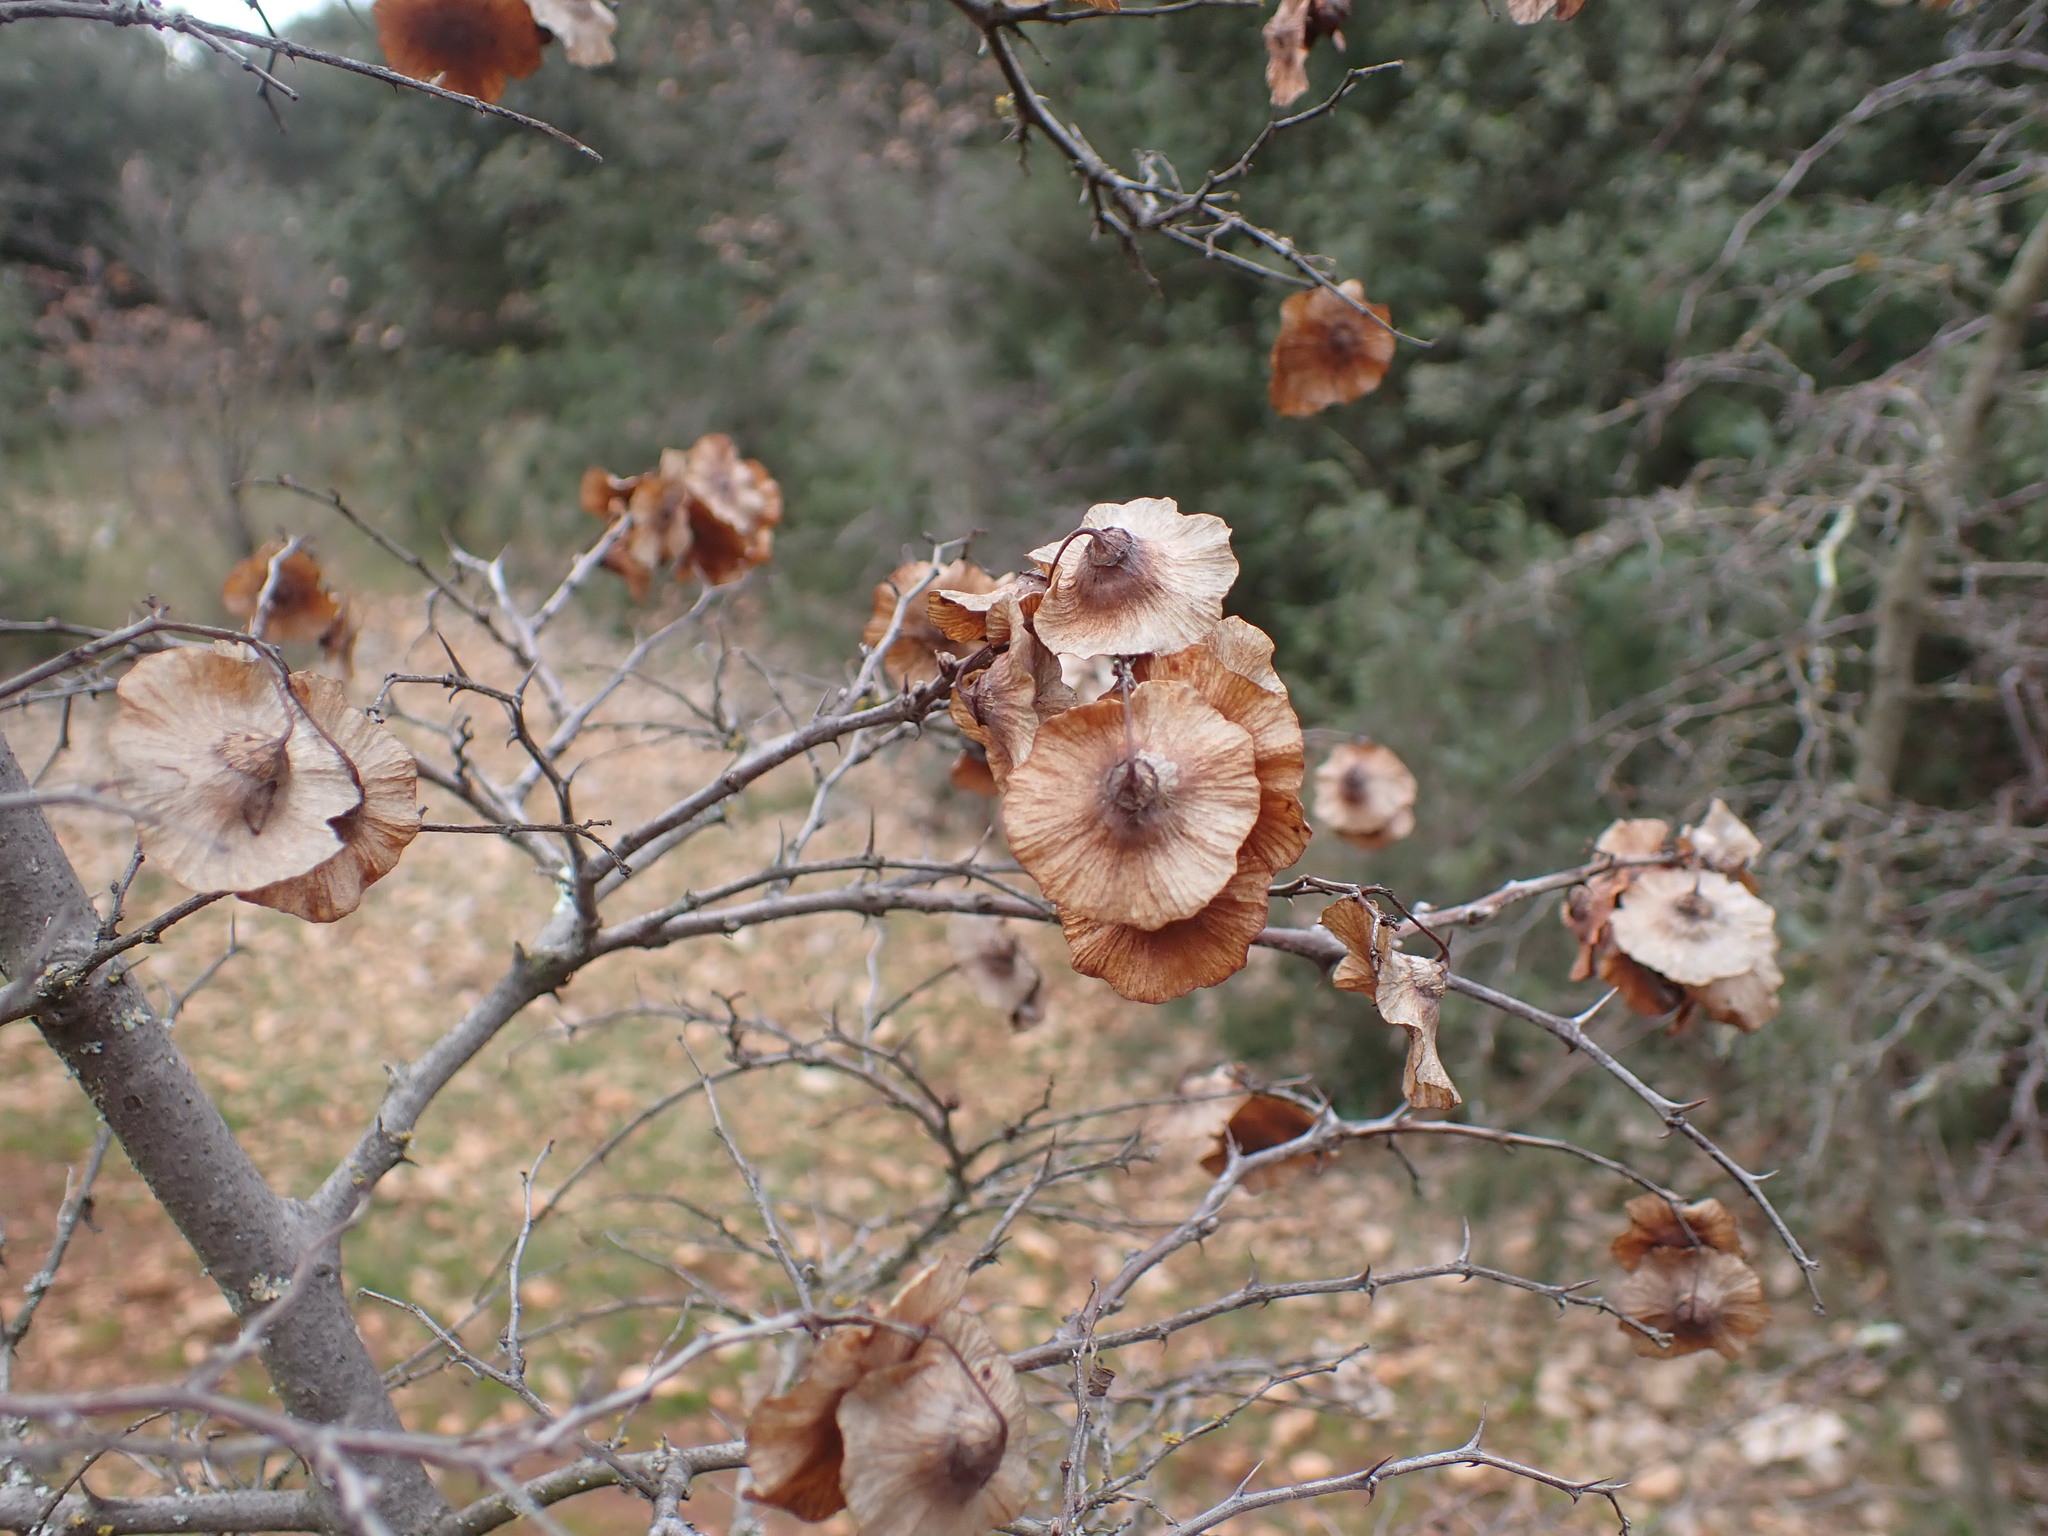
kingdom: Plantae
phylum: Tracheophyta
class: Magnoliopsida
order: Rosales
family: Rhamnaceae
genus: Paliurus
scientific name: Paliurus spina-christi
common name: Jeruselem thorn
